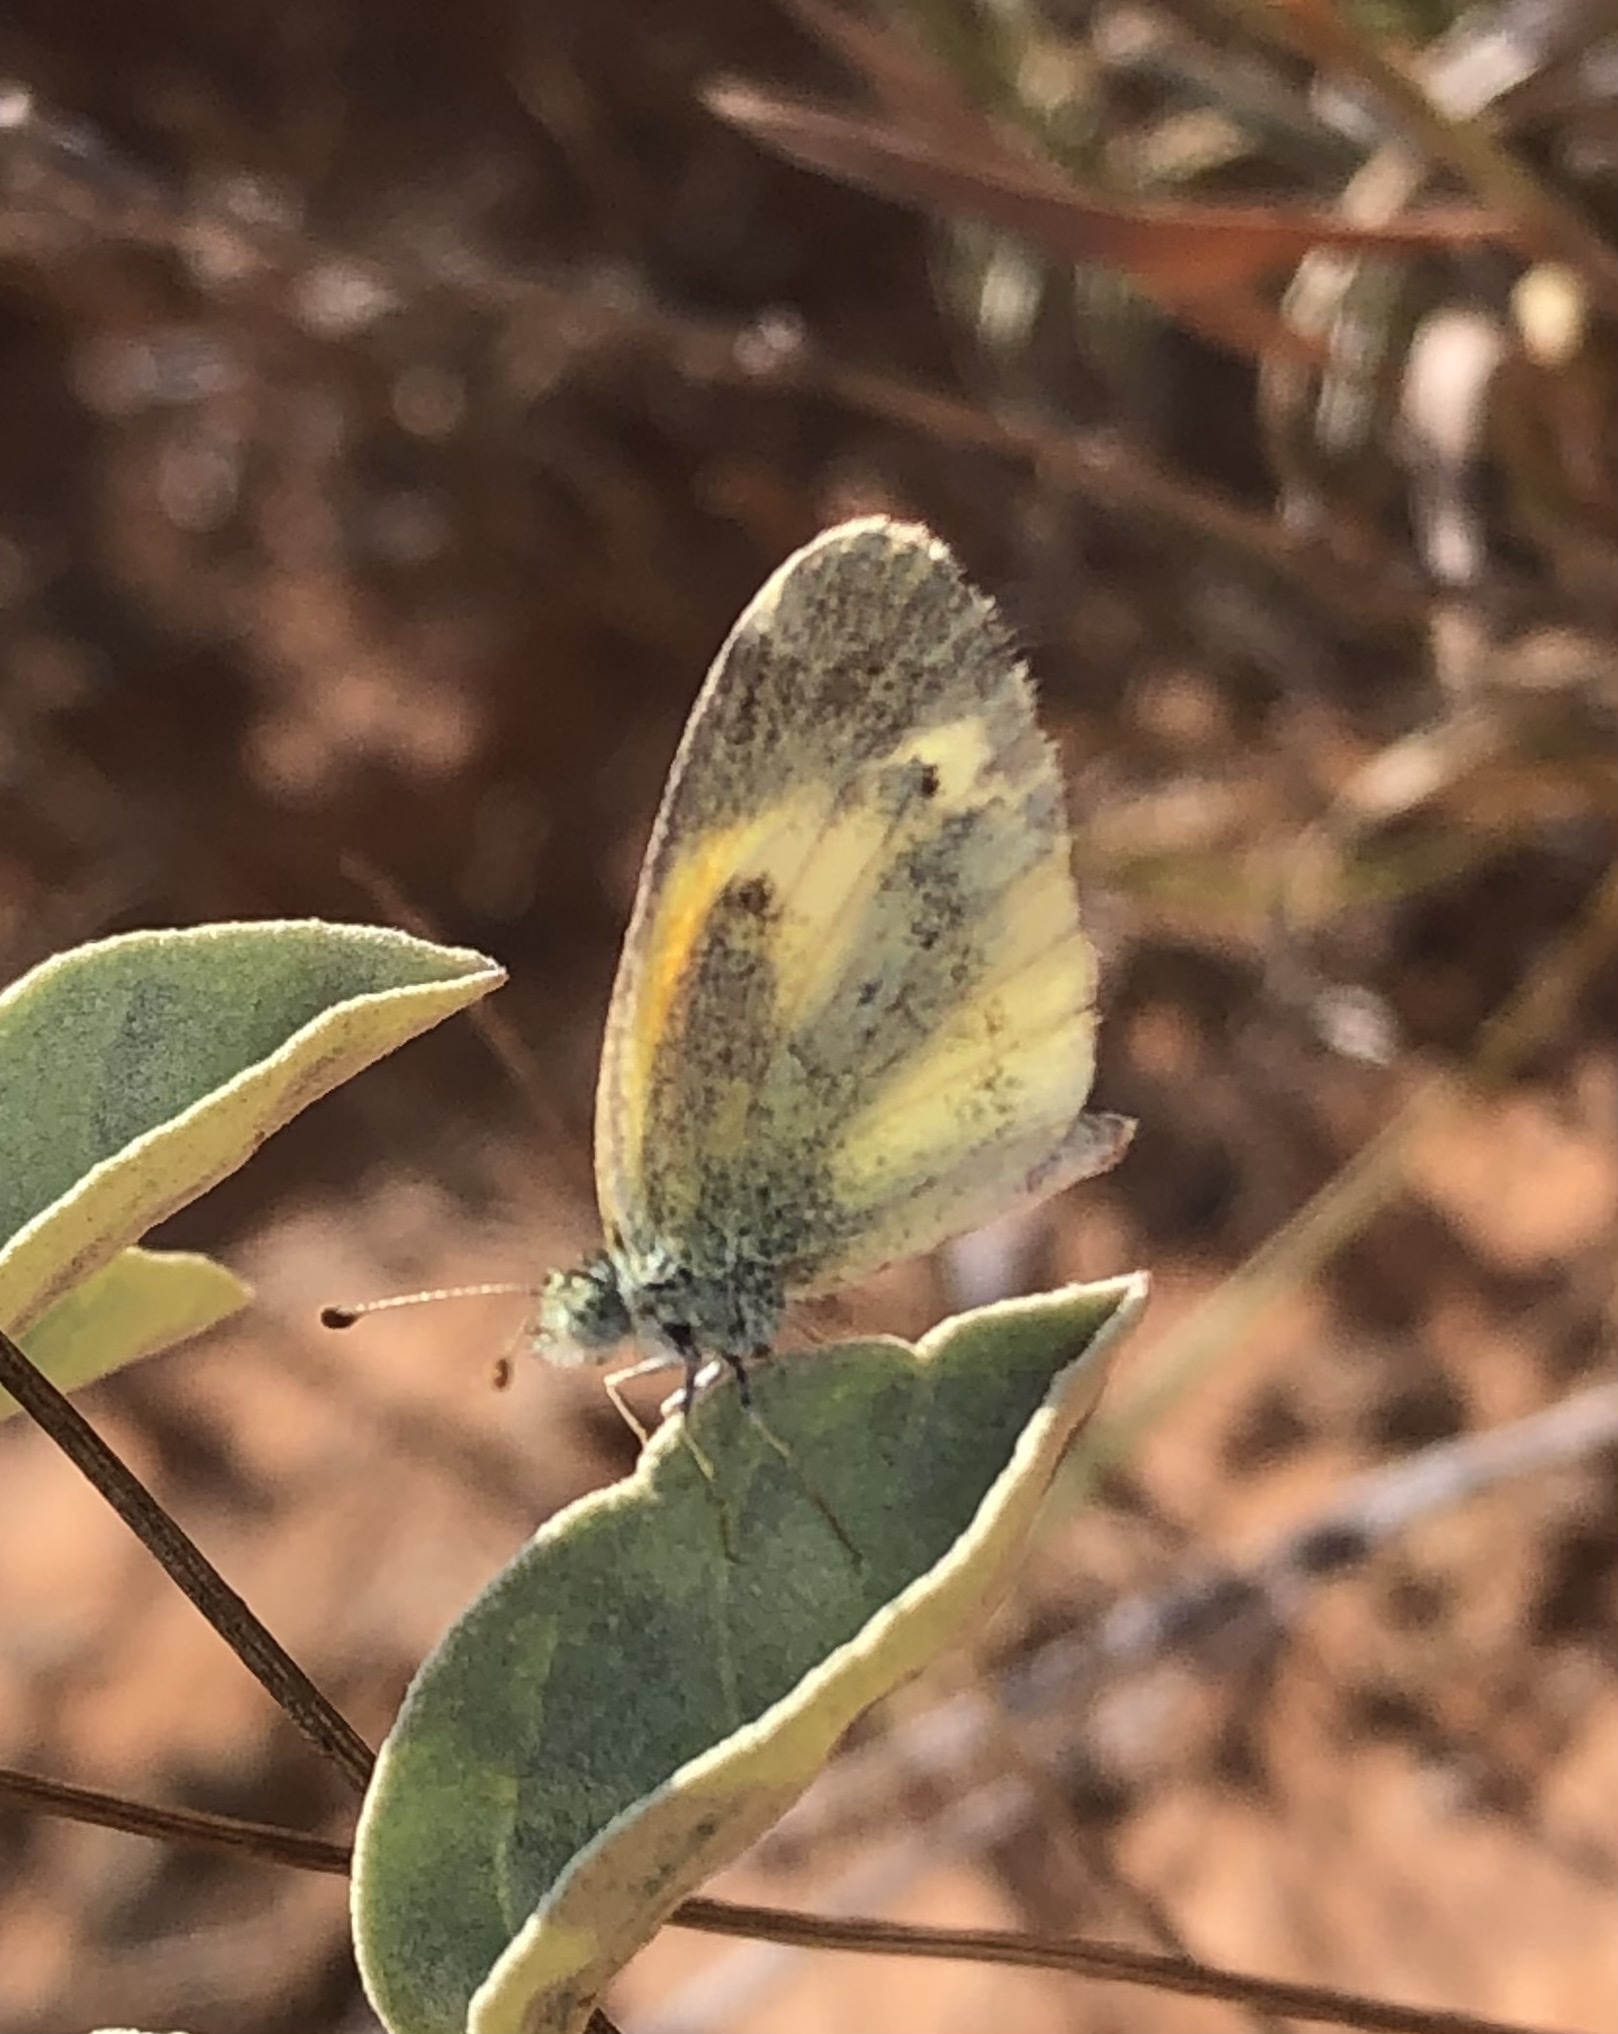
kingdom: Animalia
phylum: Arthropoda
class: Insecta
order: Lepidoptera
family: Pieridae
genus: Nathalis
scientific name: Nathalis iole
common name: Dainty sulphur
